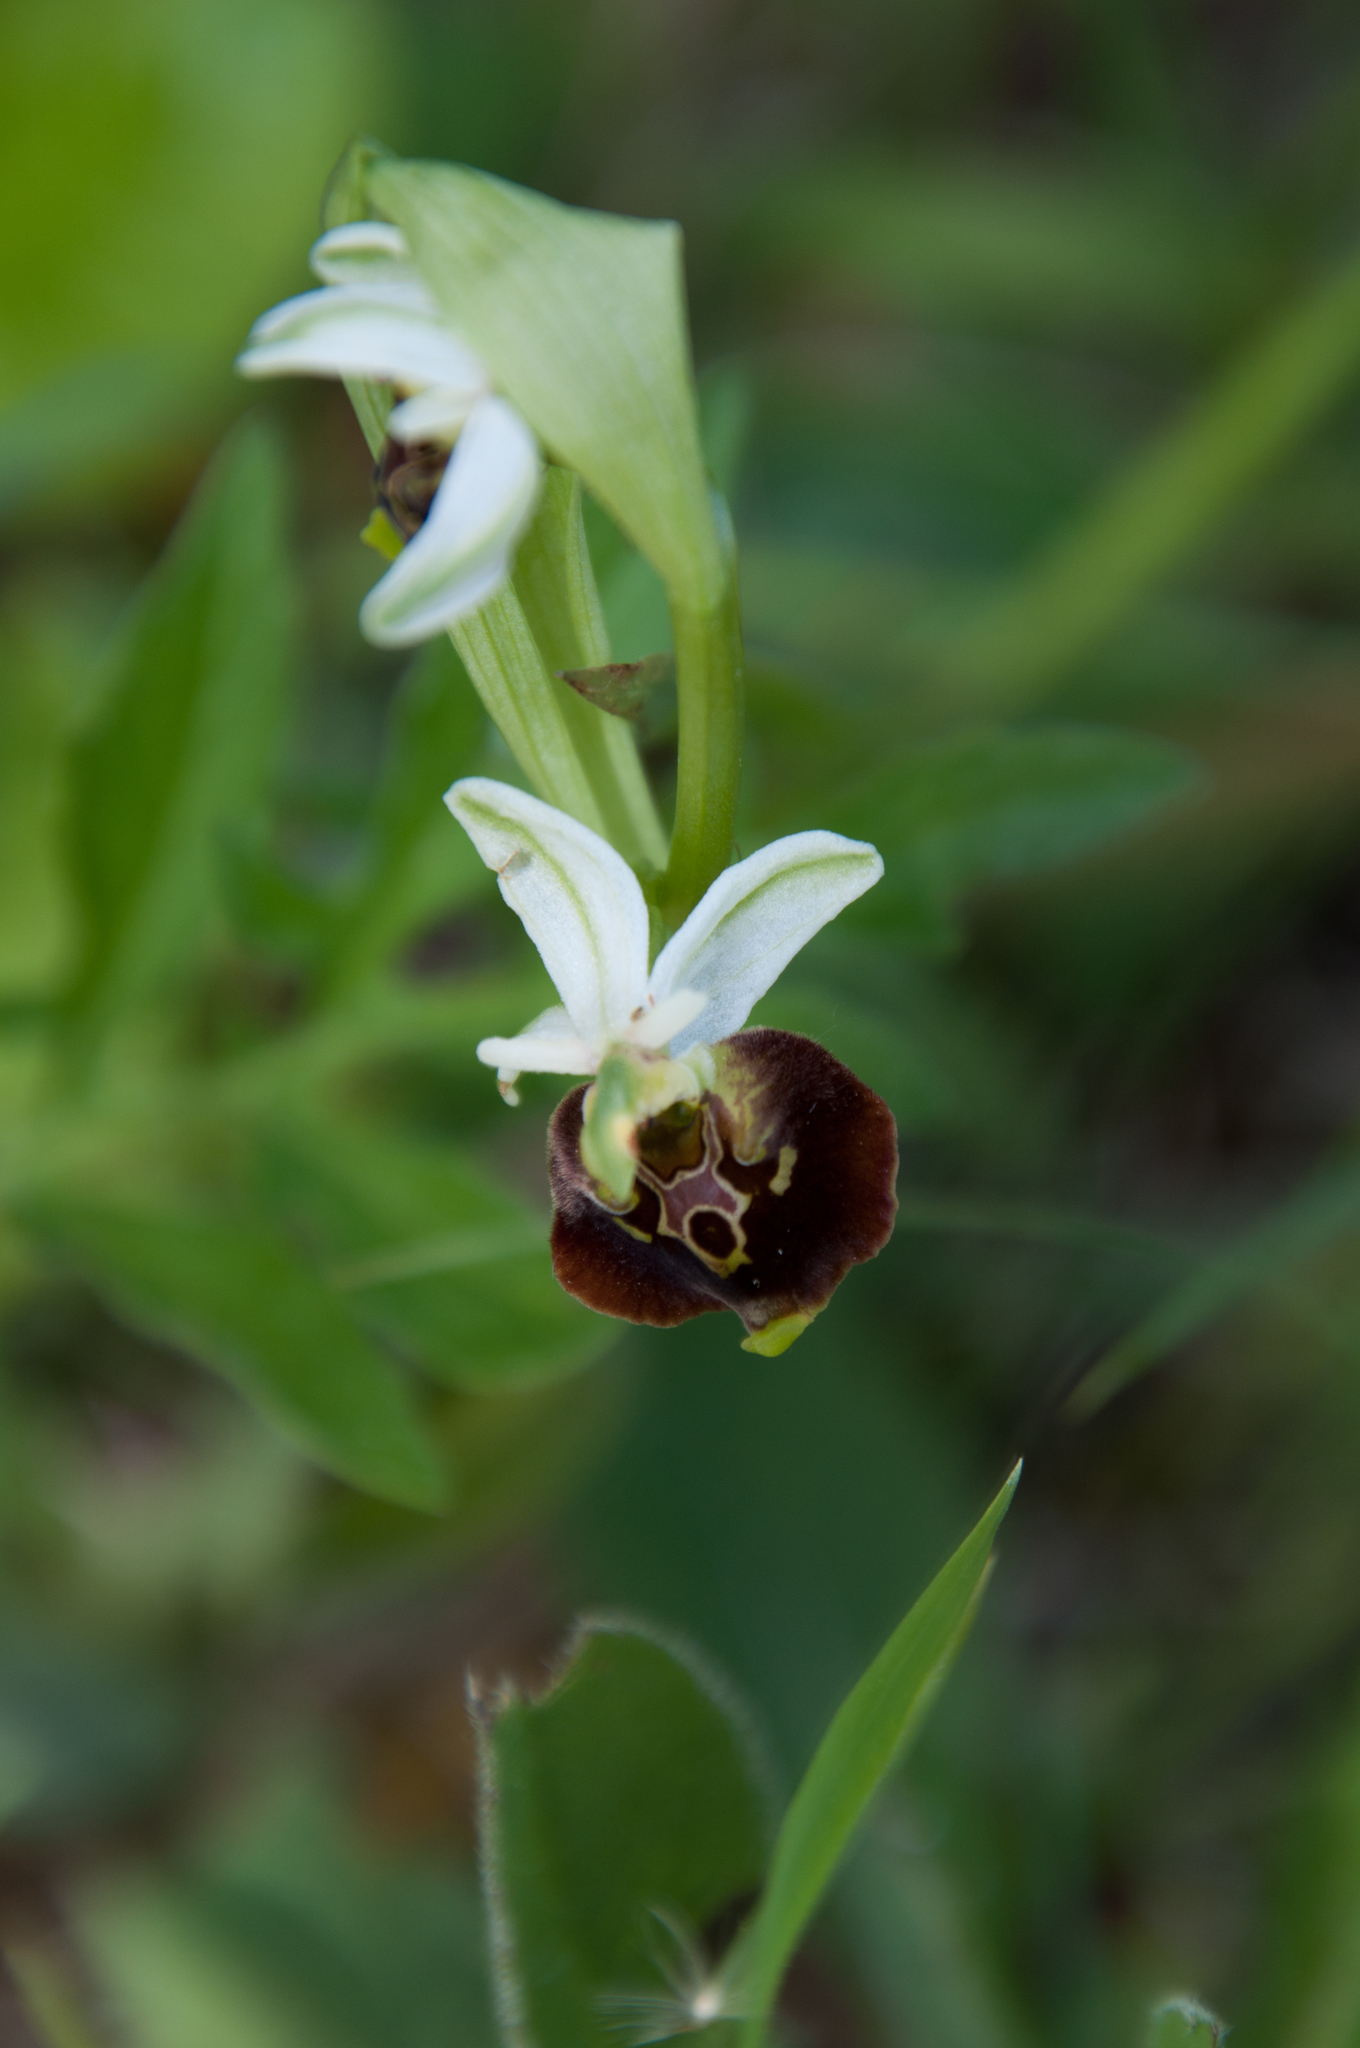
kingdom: Plantae
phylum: Tracheophyta
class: Liliopsida
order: Asparagales
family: Orchidaceae
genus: Ophrys
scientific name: Ophrys holosericea
